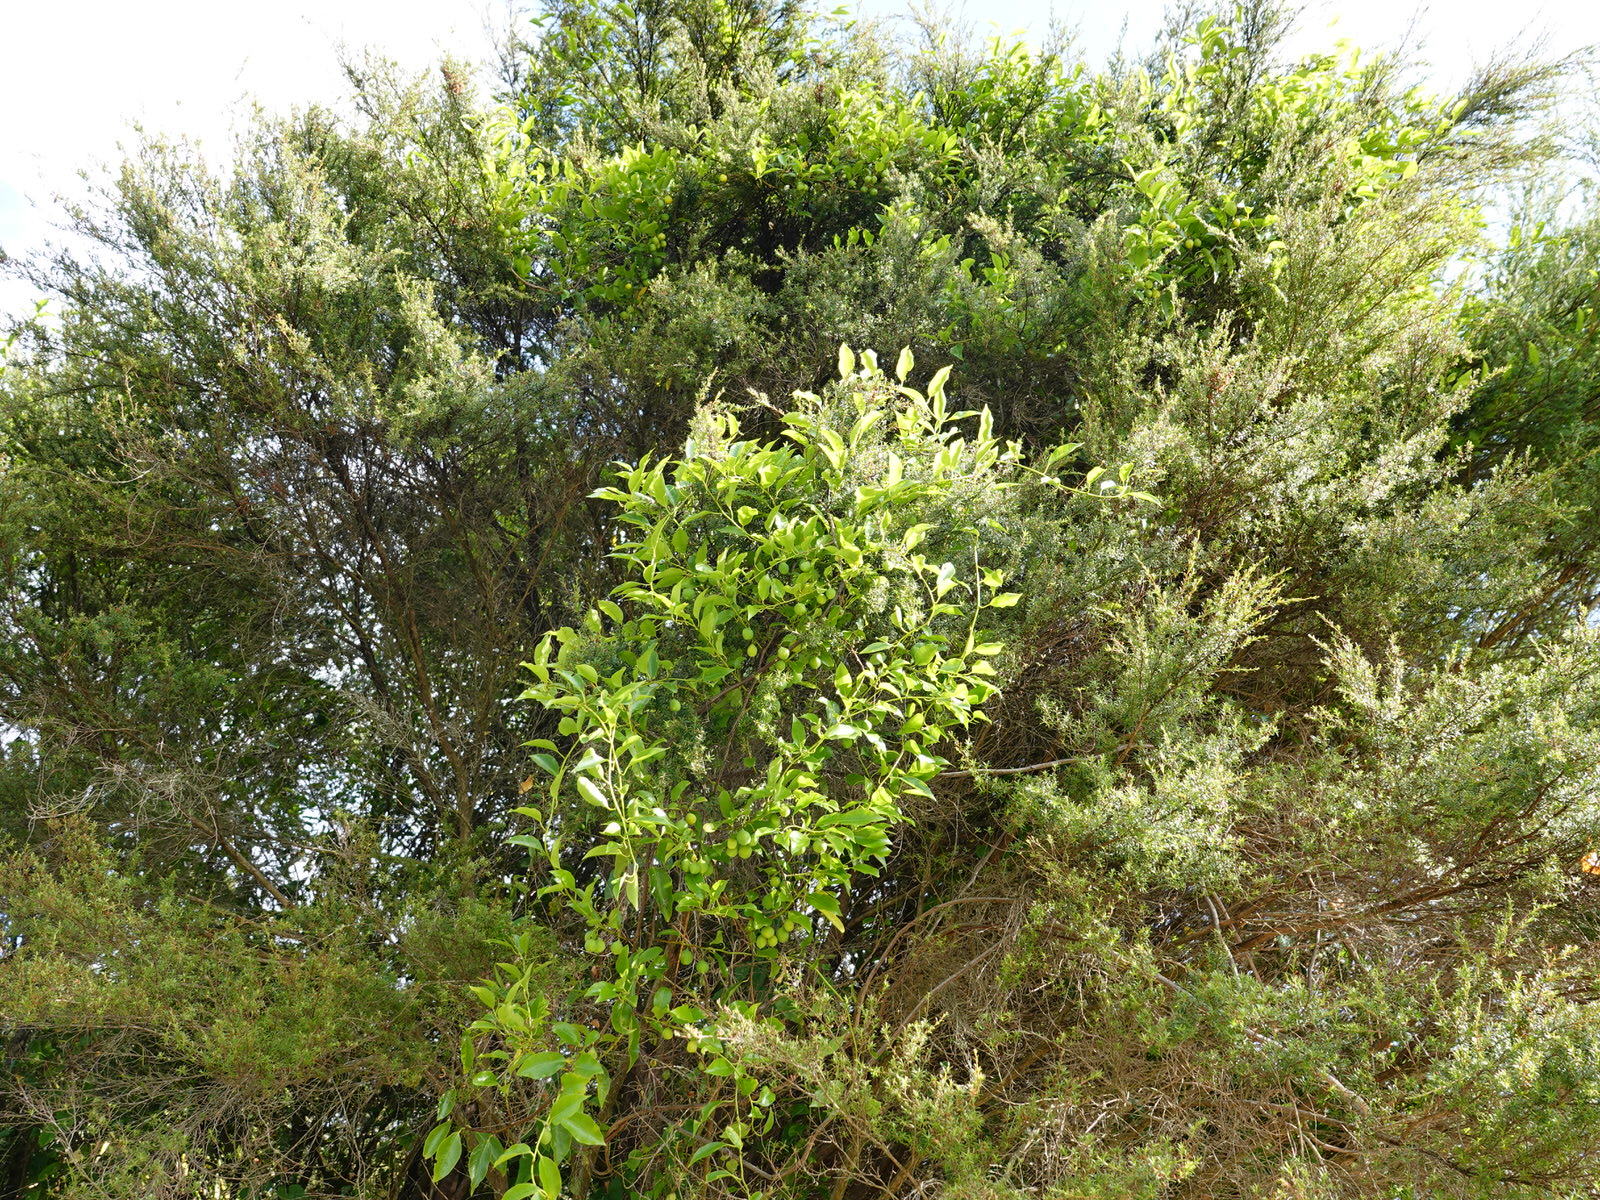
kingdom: Plantae
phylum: Tracheophyta
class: Magnoliopsida
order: Malpighiales
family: Passifloraceae
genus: Passiflora
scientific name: Passiflora tetrandra
